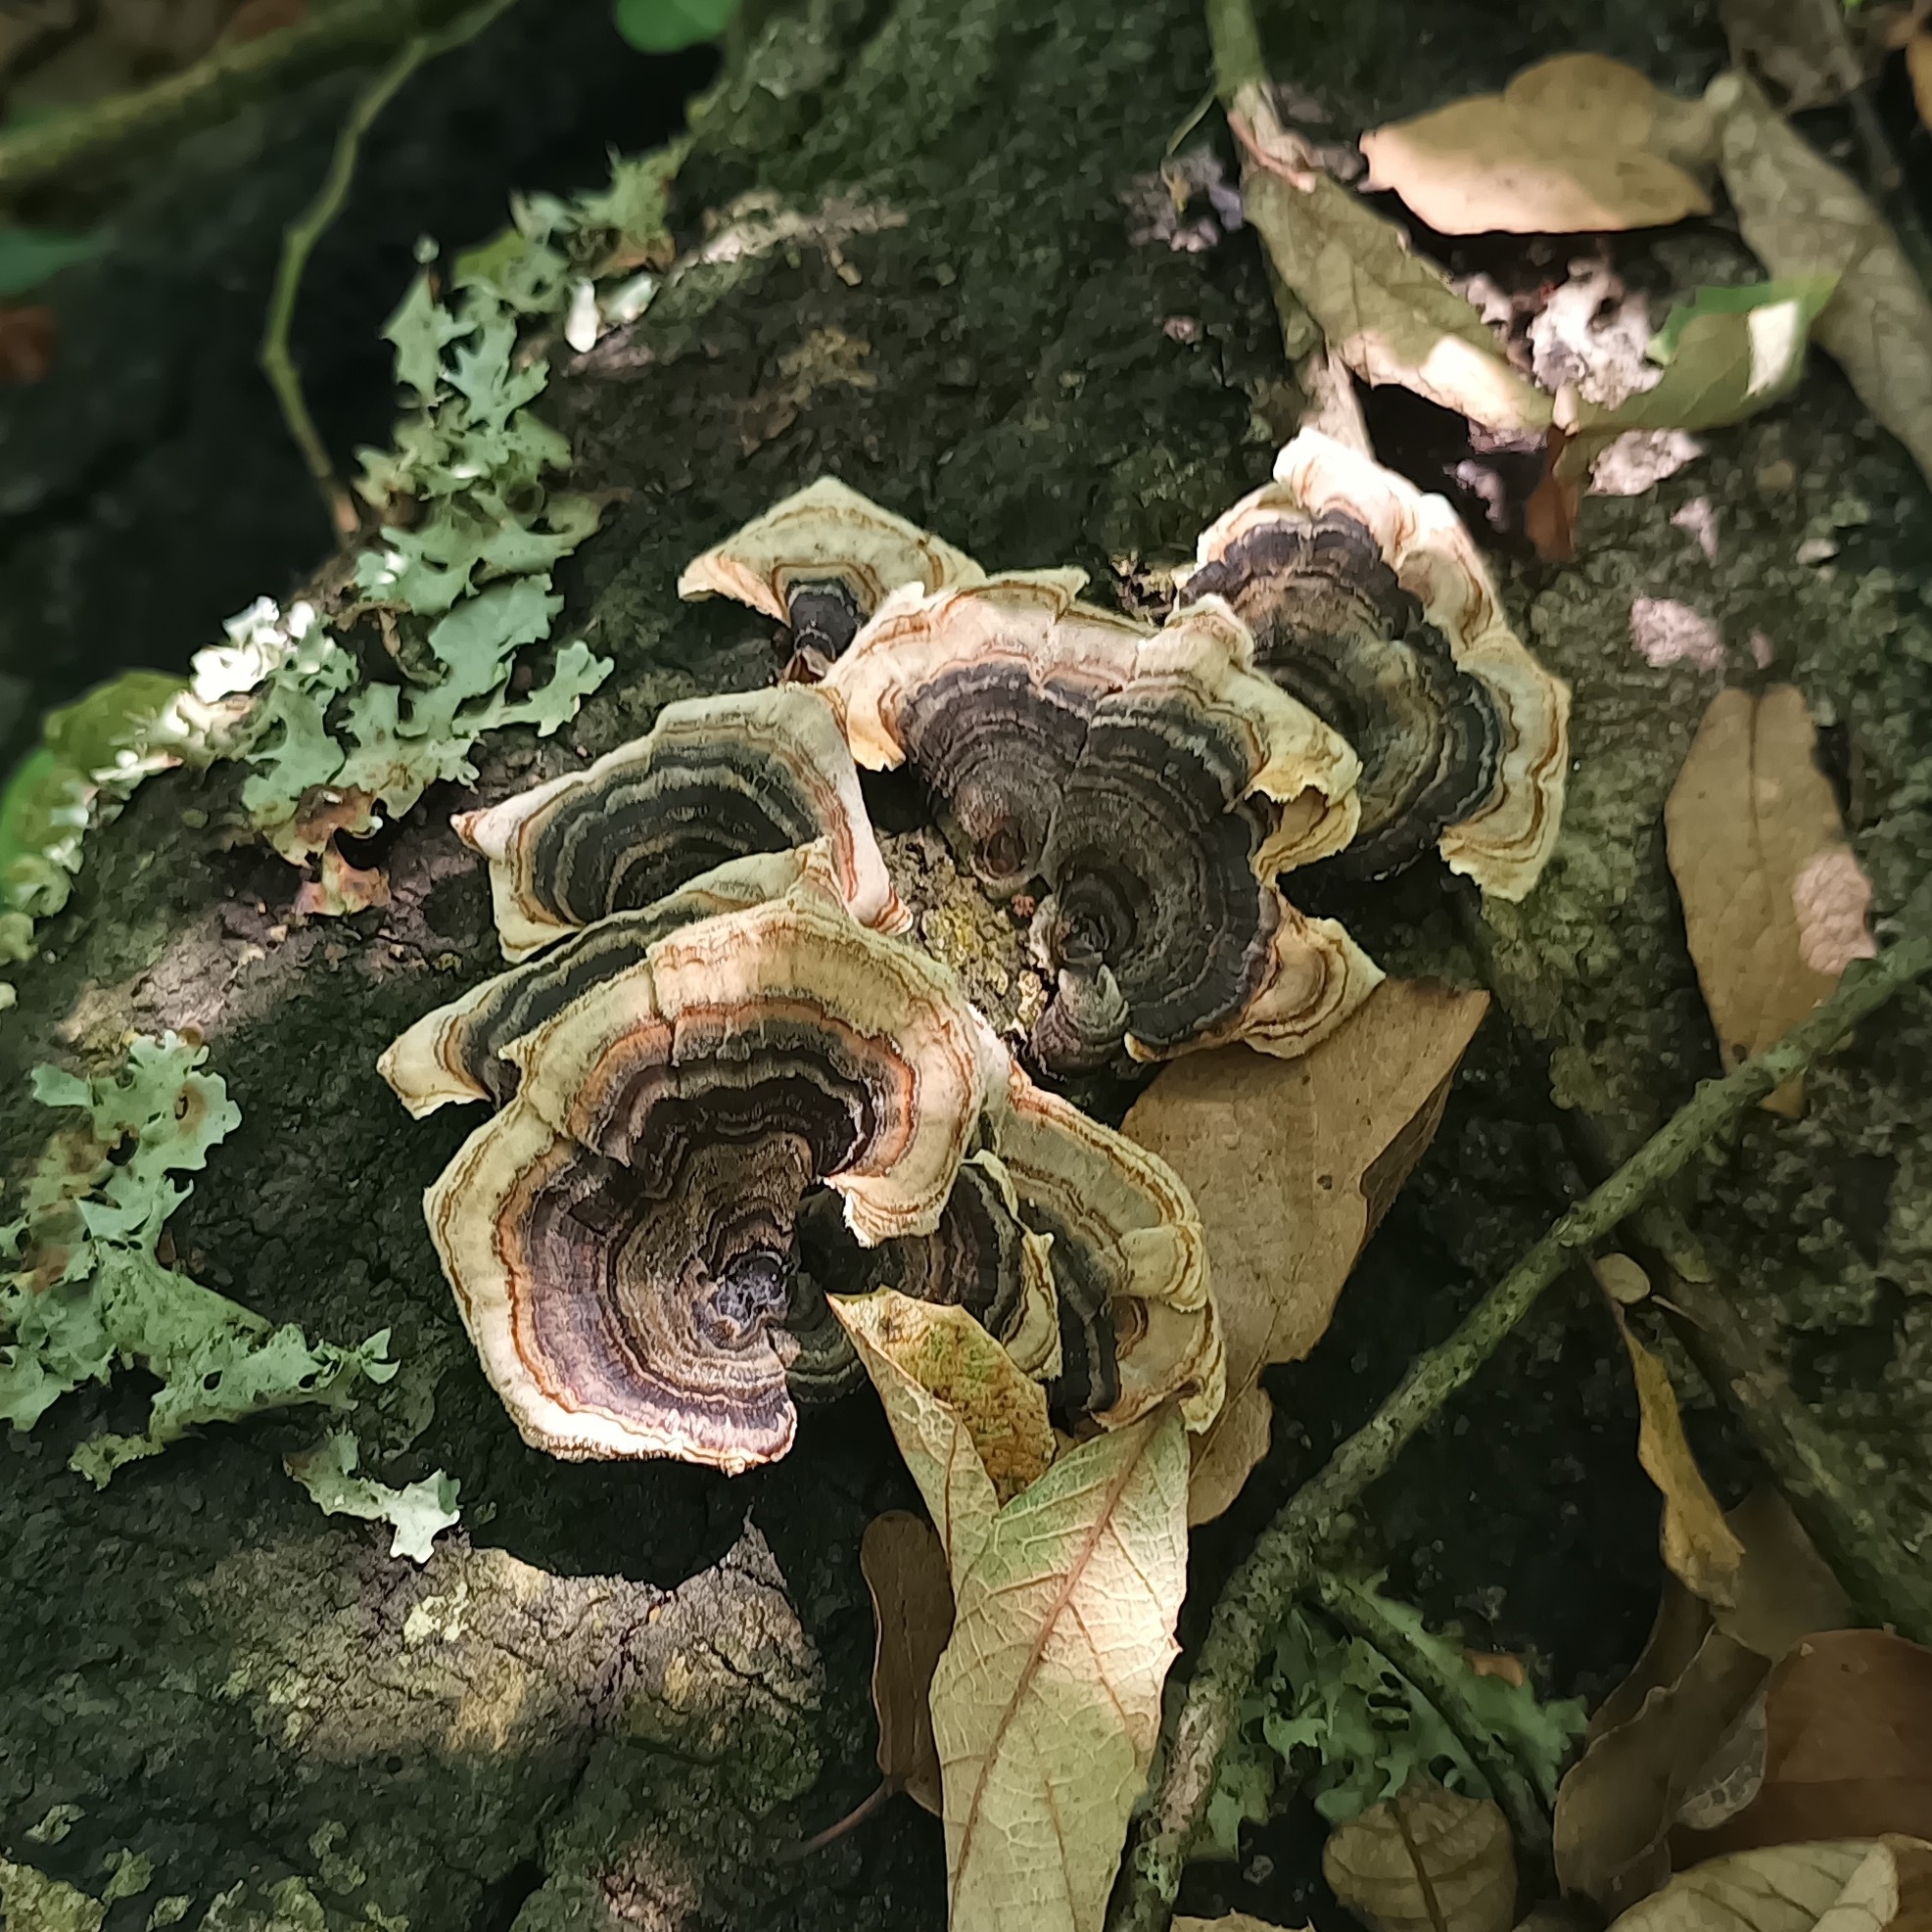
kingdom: Fungi
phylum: Basidiomycota
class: Agaricomycetes
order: Polyporales
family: Polyporaceae
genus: Trametes
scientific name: Trametes versicolor
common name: Turkeytail
